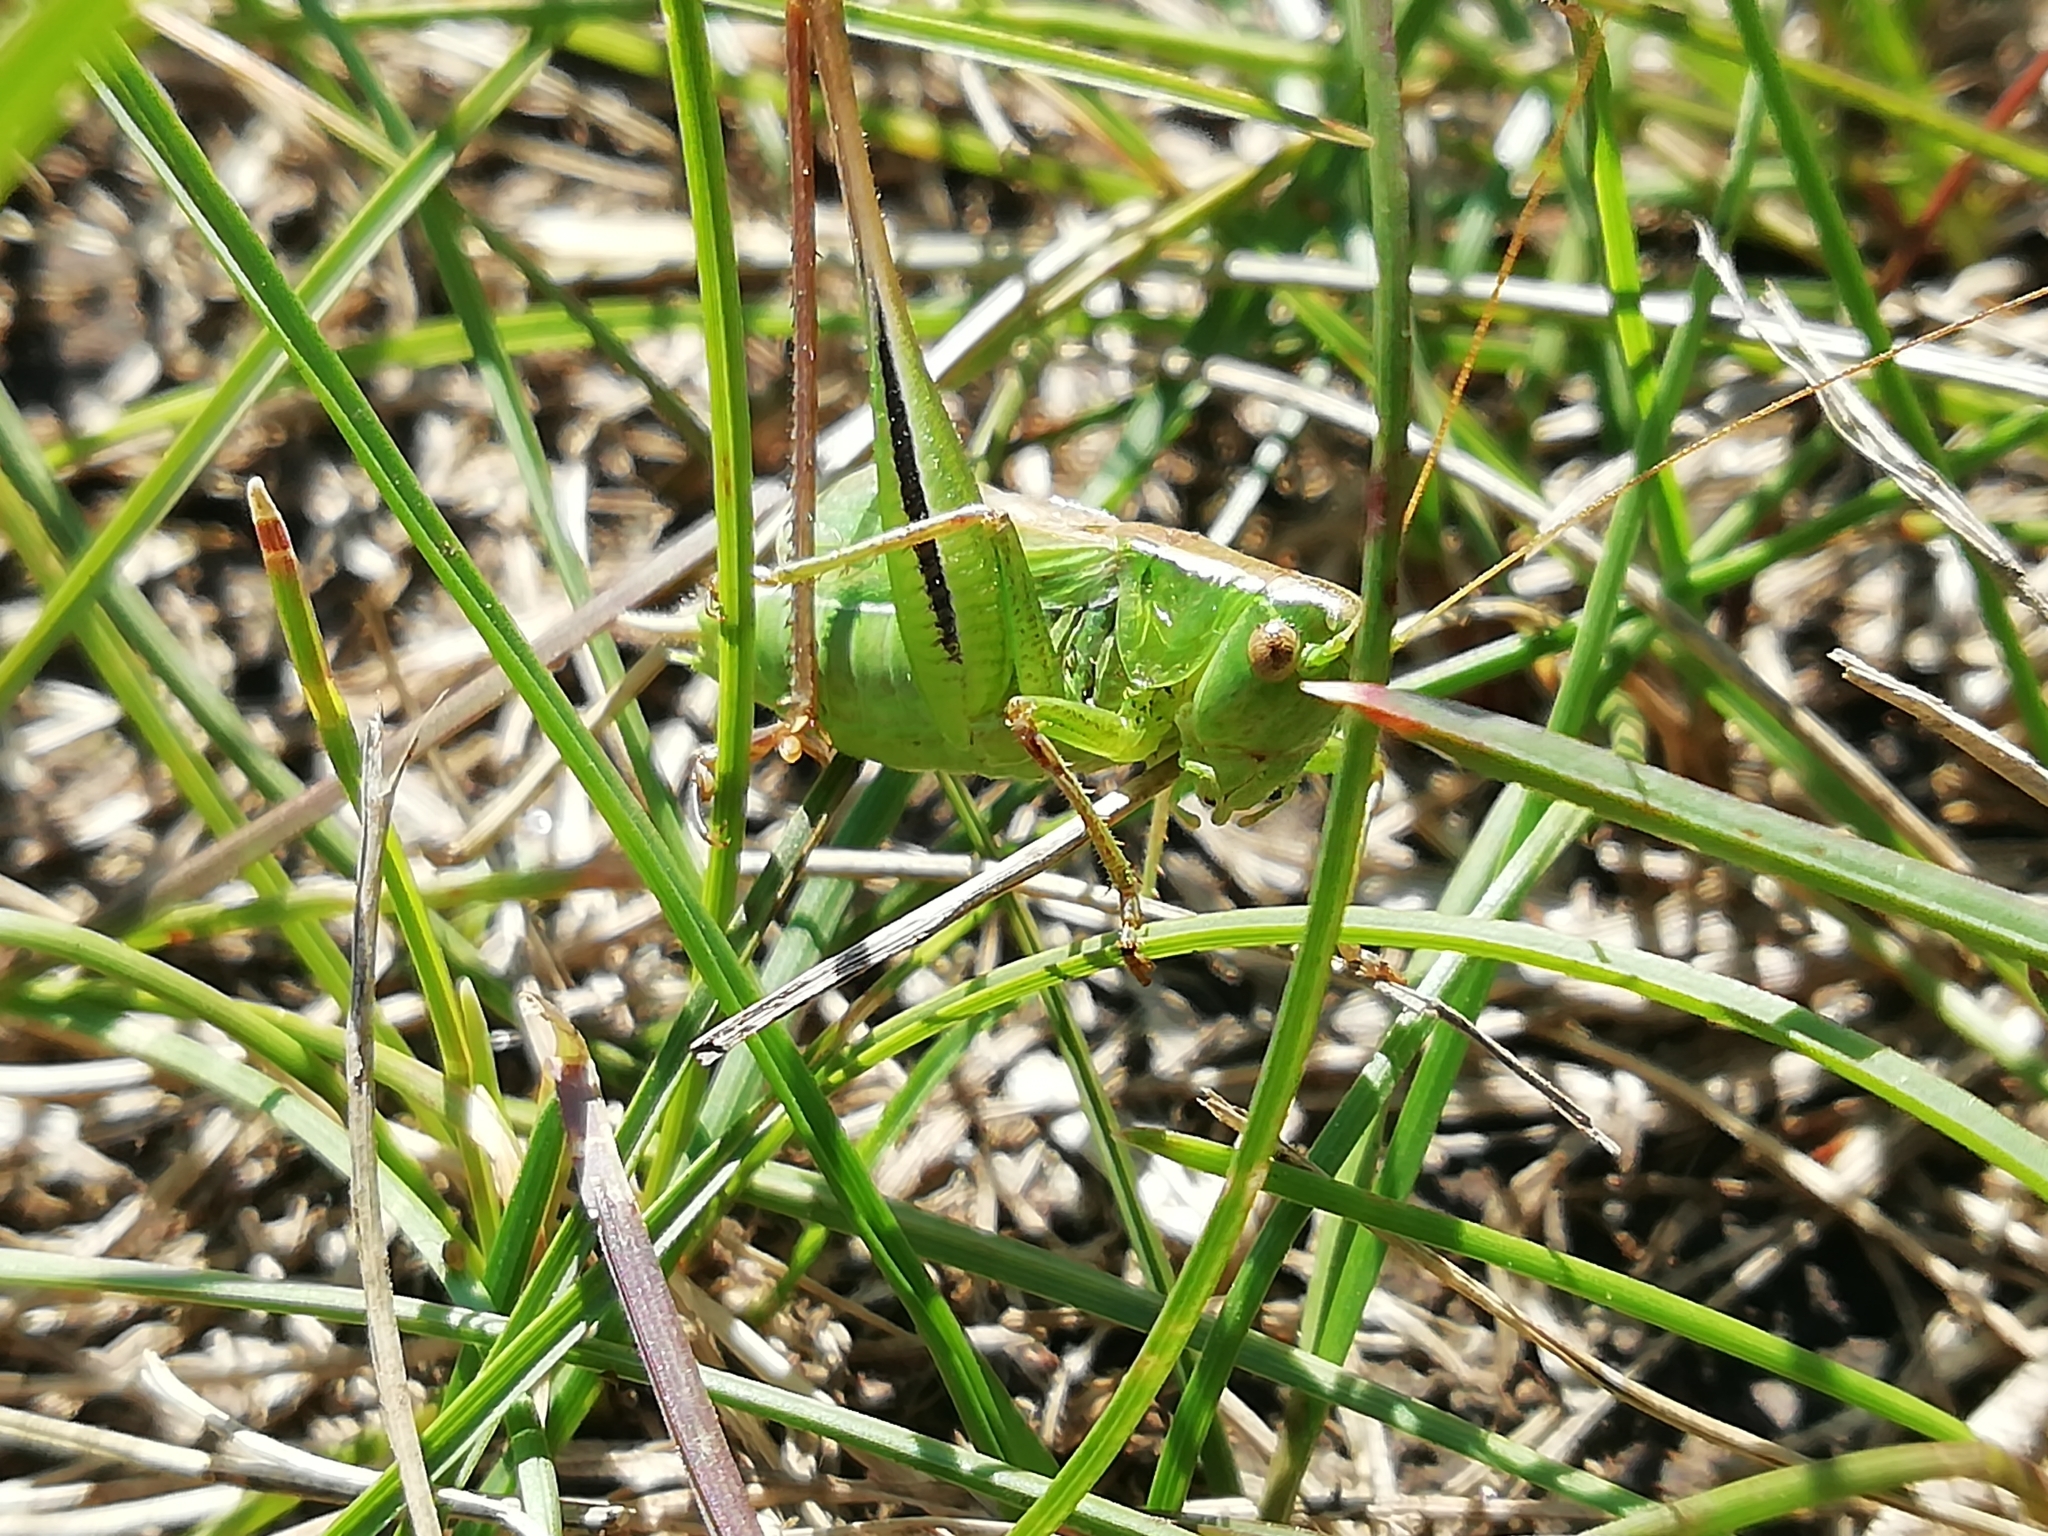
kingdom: Animalia
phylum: Arthropoda
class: Insecta
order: Orthoptera
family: Tettigoniidae
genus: Bicolorana
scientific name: Bicolorana bicolor
